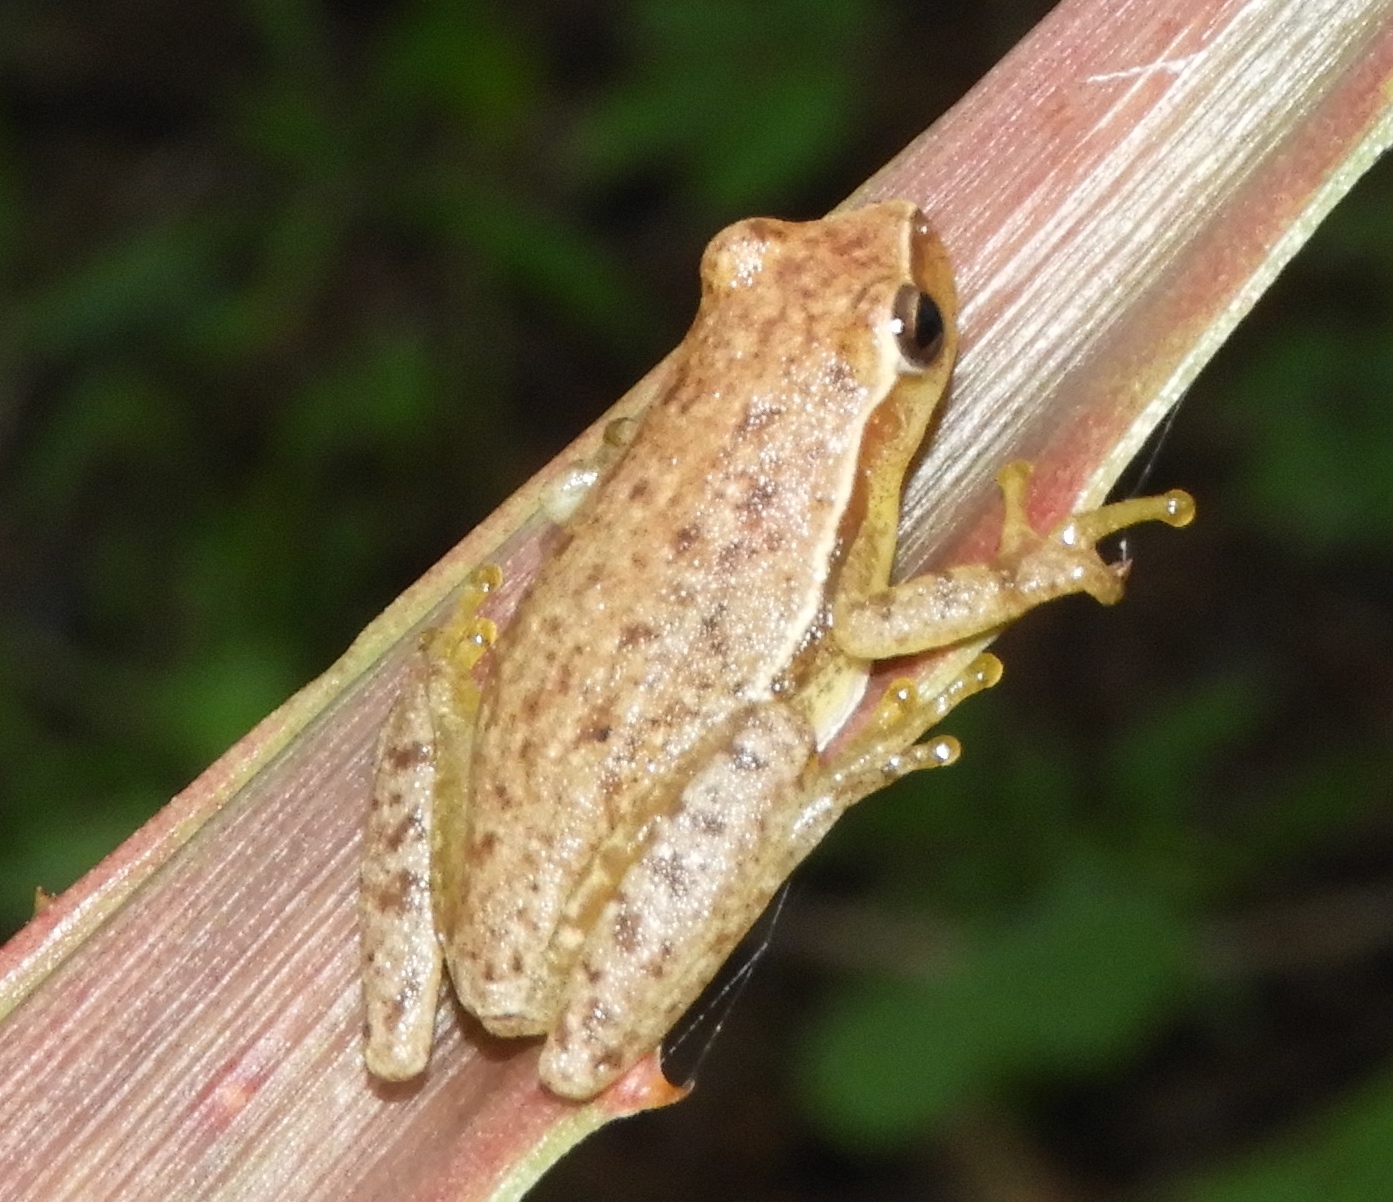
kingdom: Animalia
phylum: Chordata
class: Amphibia
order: Anura
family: Hylidae
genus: Tlalocohyla
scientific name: Tlalocohyla smithii
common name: Dwarf mexican treefrog
